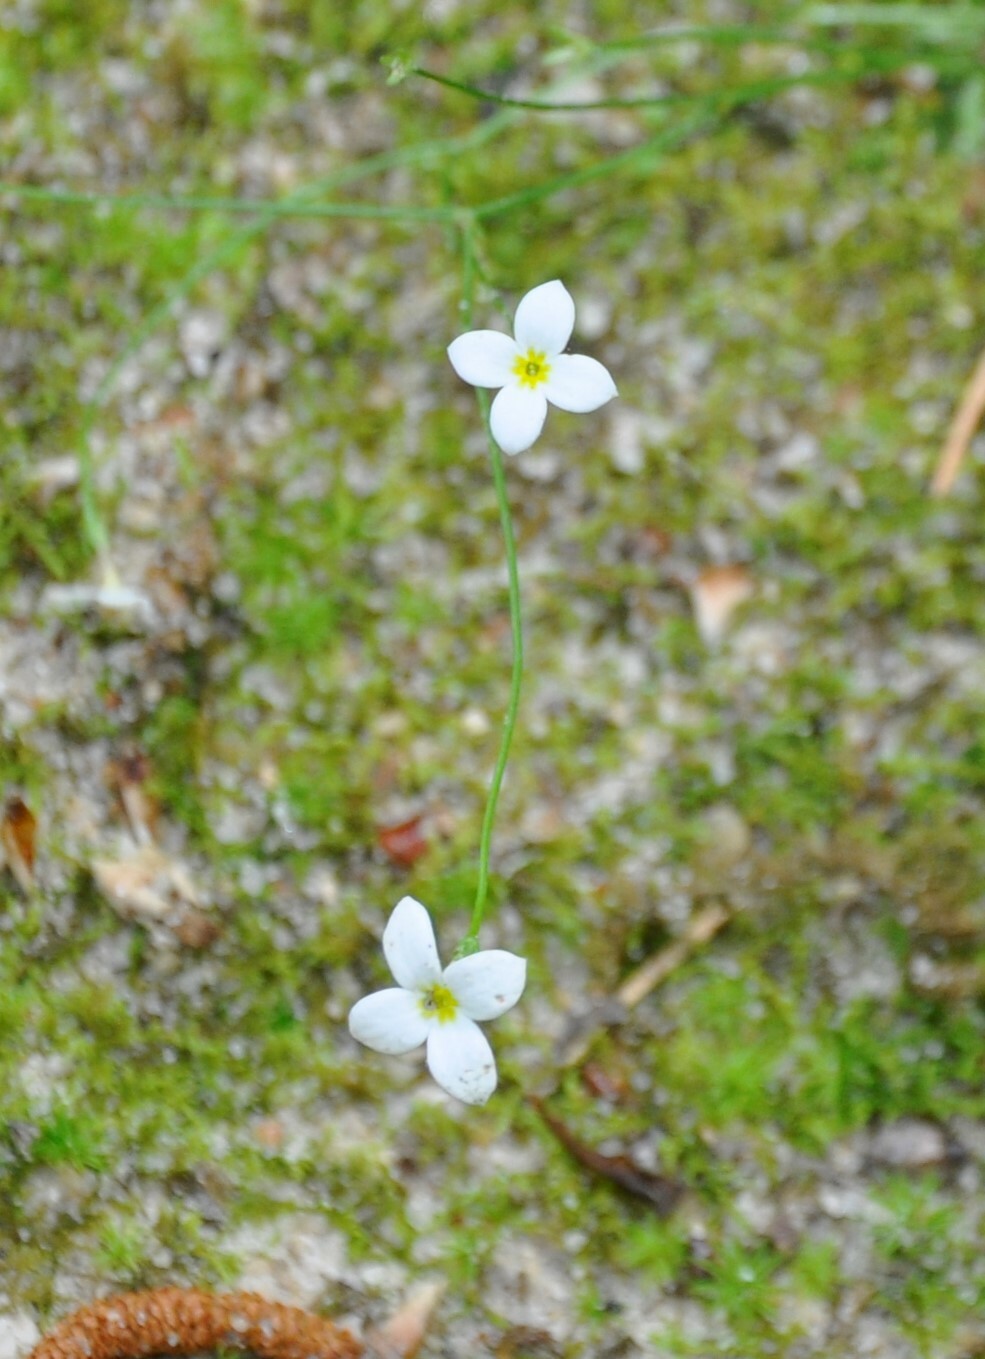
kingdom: Plantae
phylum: Tracheophyta
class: Magnoliopsida
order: Gentianales
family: Rubiaceae
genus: Houstonia
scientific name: Houstonia caerulea
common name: Bluets
